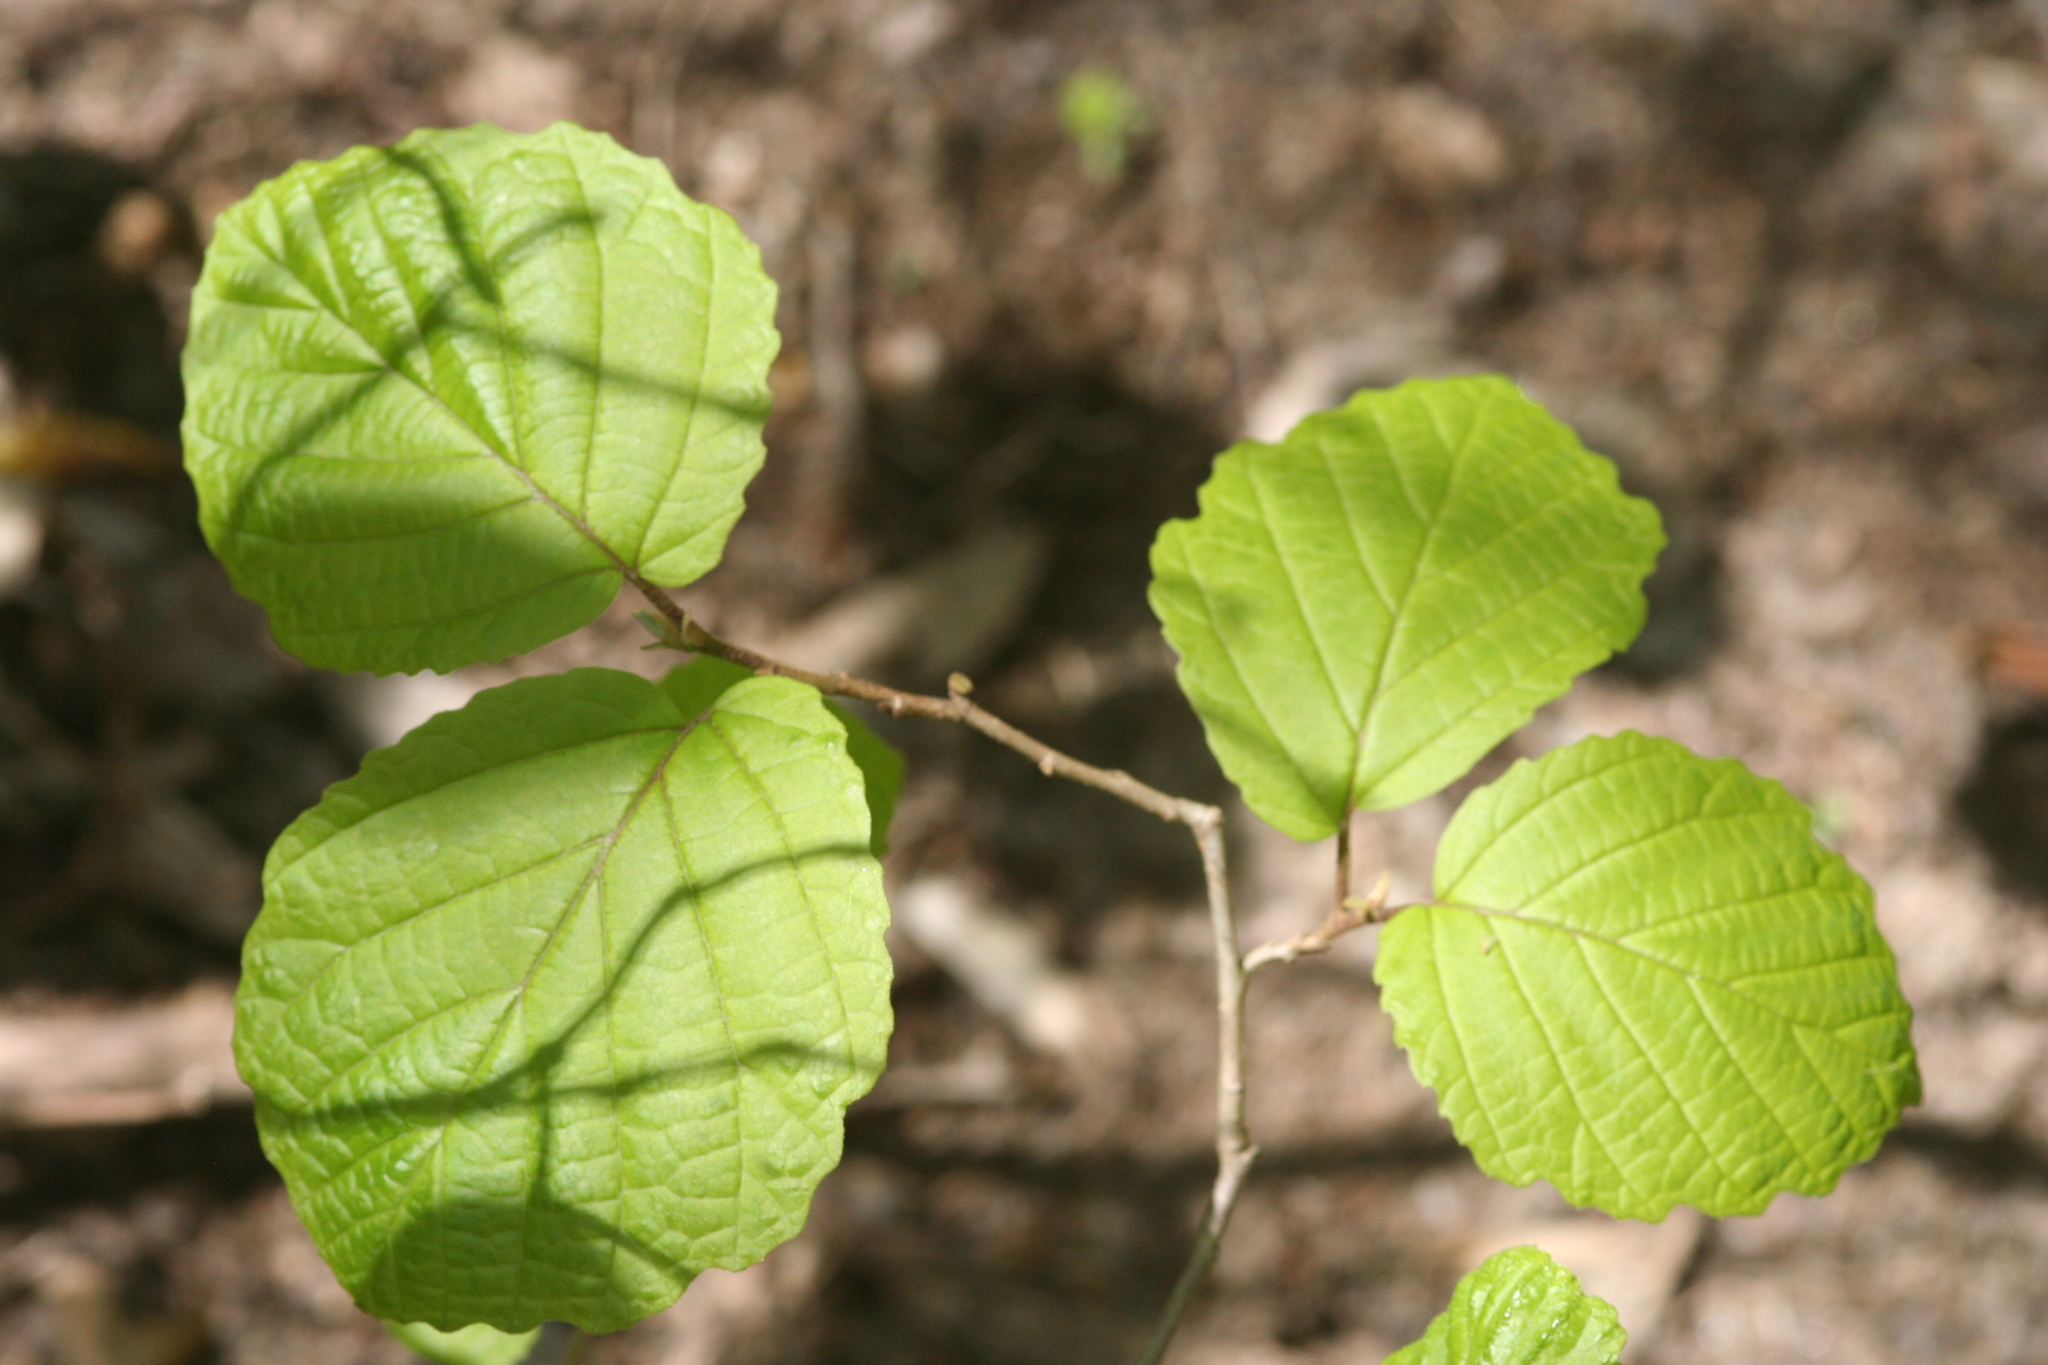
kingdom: Plantae
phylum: Tracheophyta
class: Magnoliopsida
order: Saxifragales
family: Hamamelidaceae
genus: Hamamelis
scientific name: Hamamelis virginiana
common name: Witch-hazel
